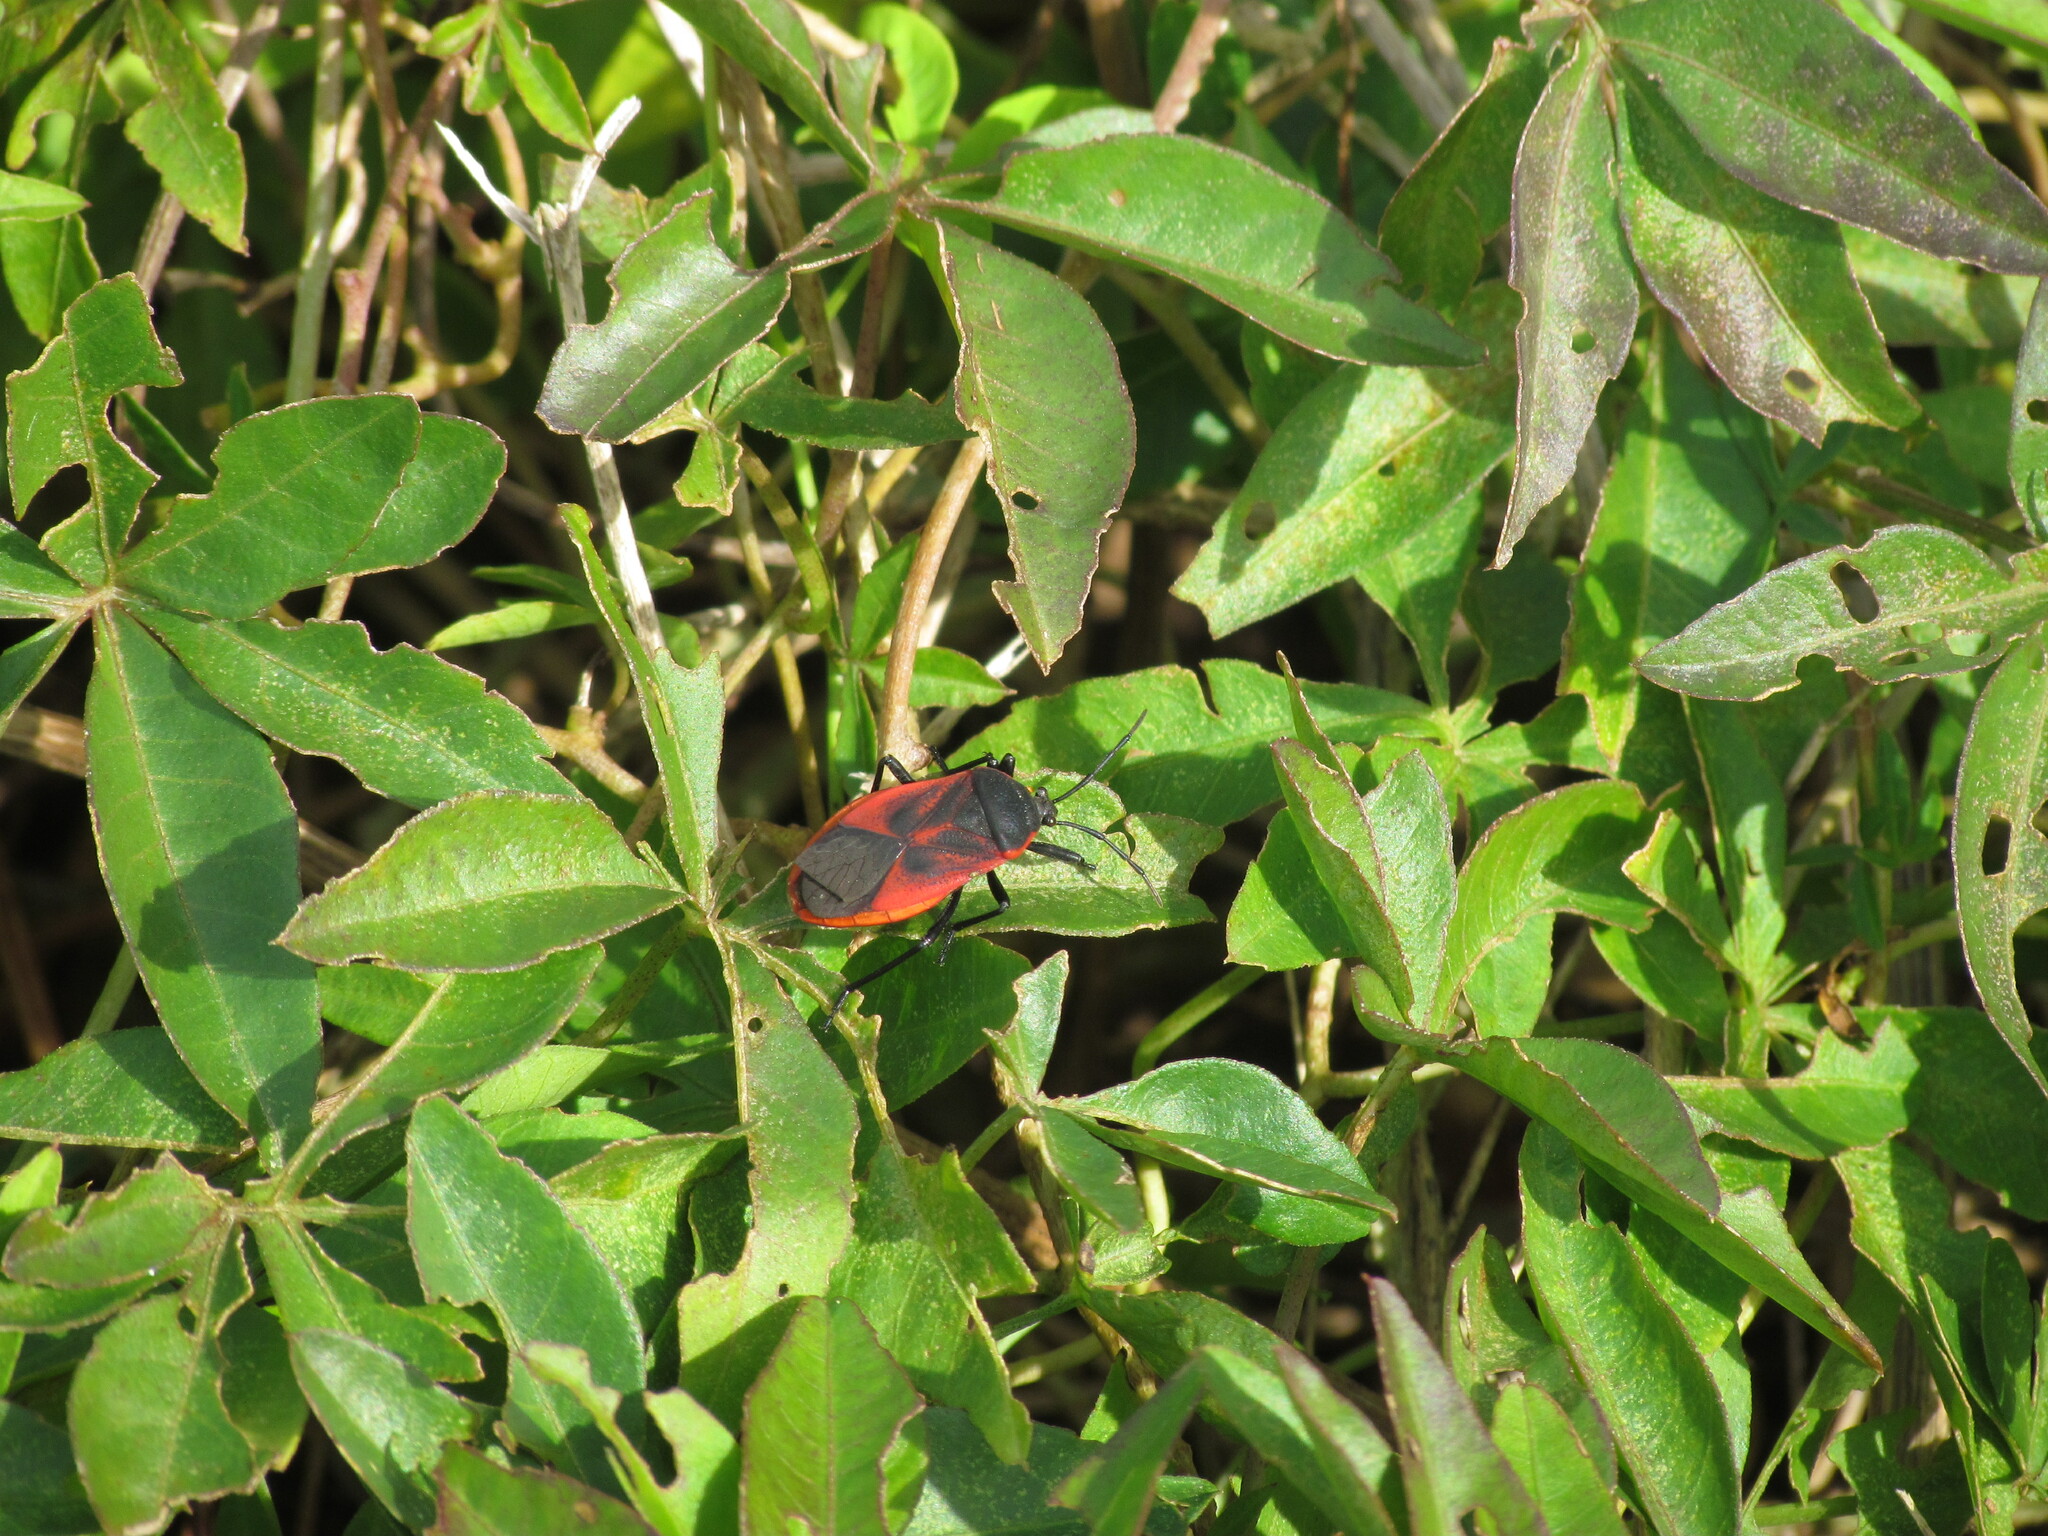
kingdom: Animalia
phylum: Arthropoda
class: Insecta
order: Hemiptera
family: Largidae
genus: Largus
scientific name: Largus rufipennis
